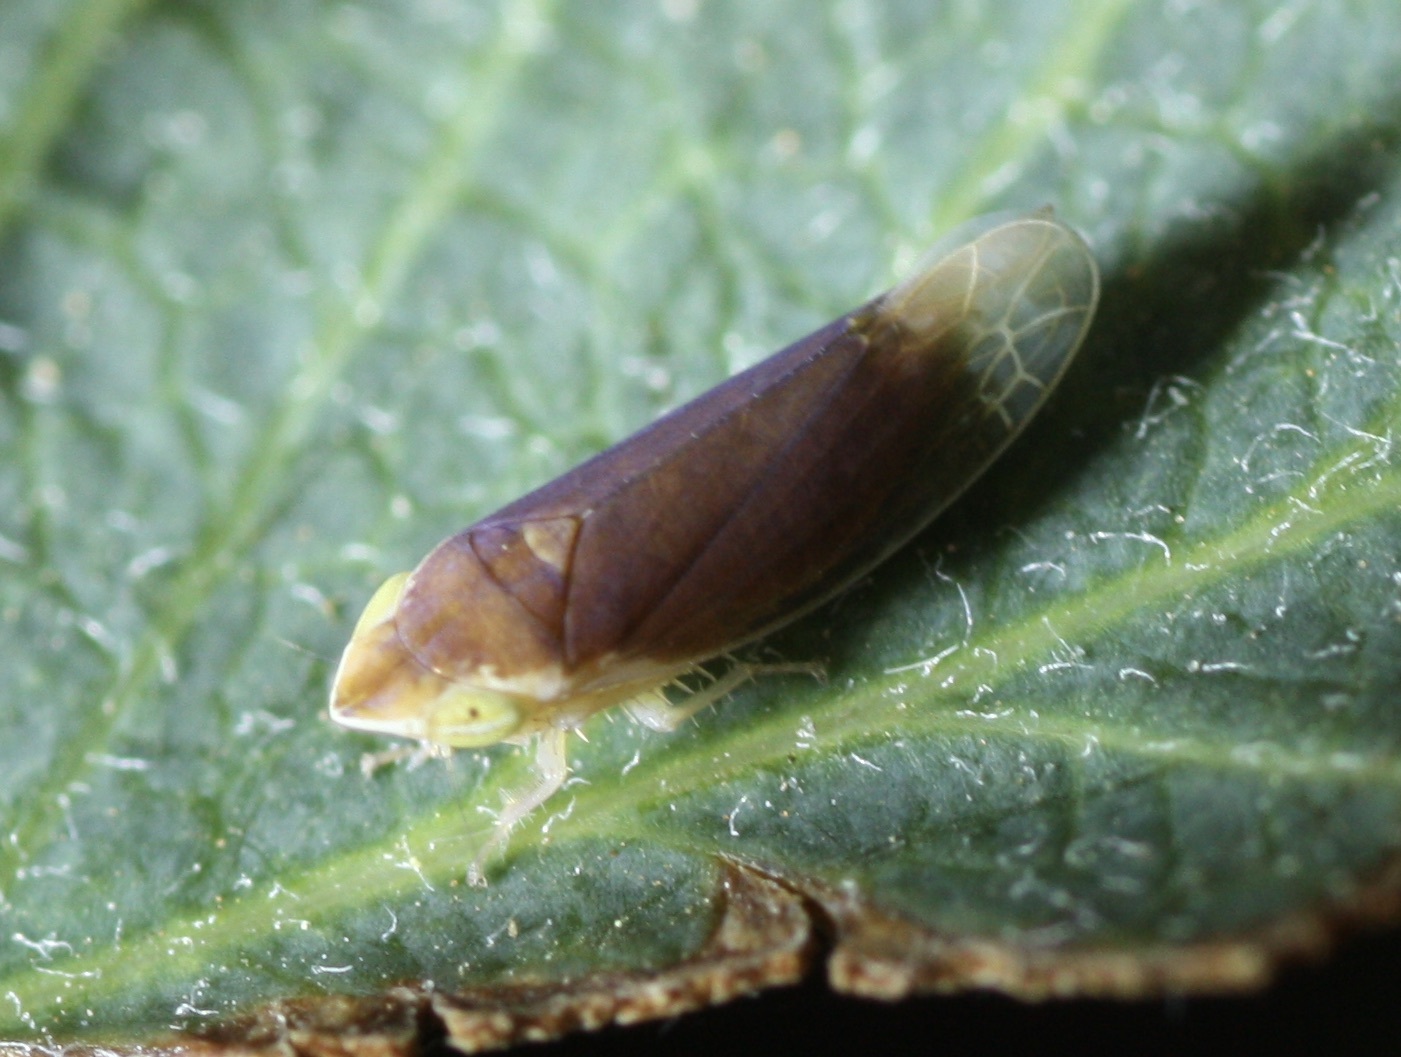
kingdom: Animalia
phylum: Arthropoda
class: Insecta
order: Hemiptera
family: Cicadellidae
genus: Twiningia
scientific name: Twiningia fumida
